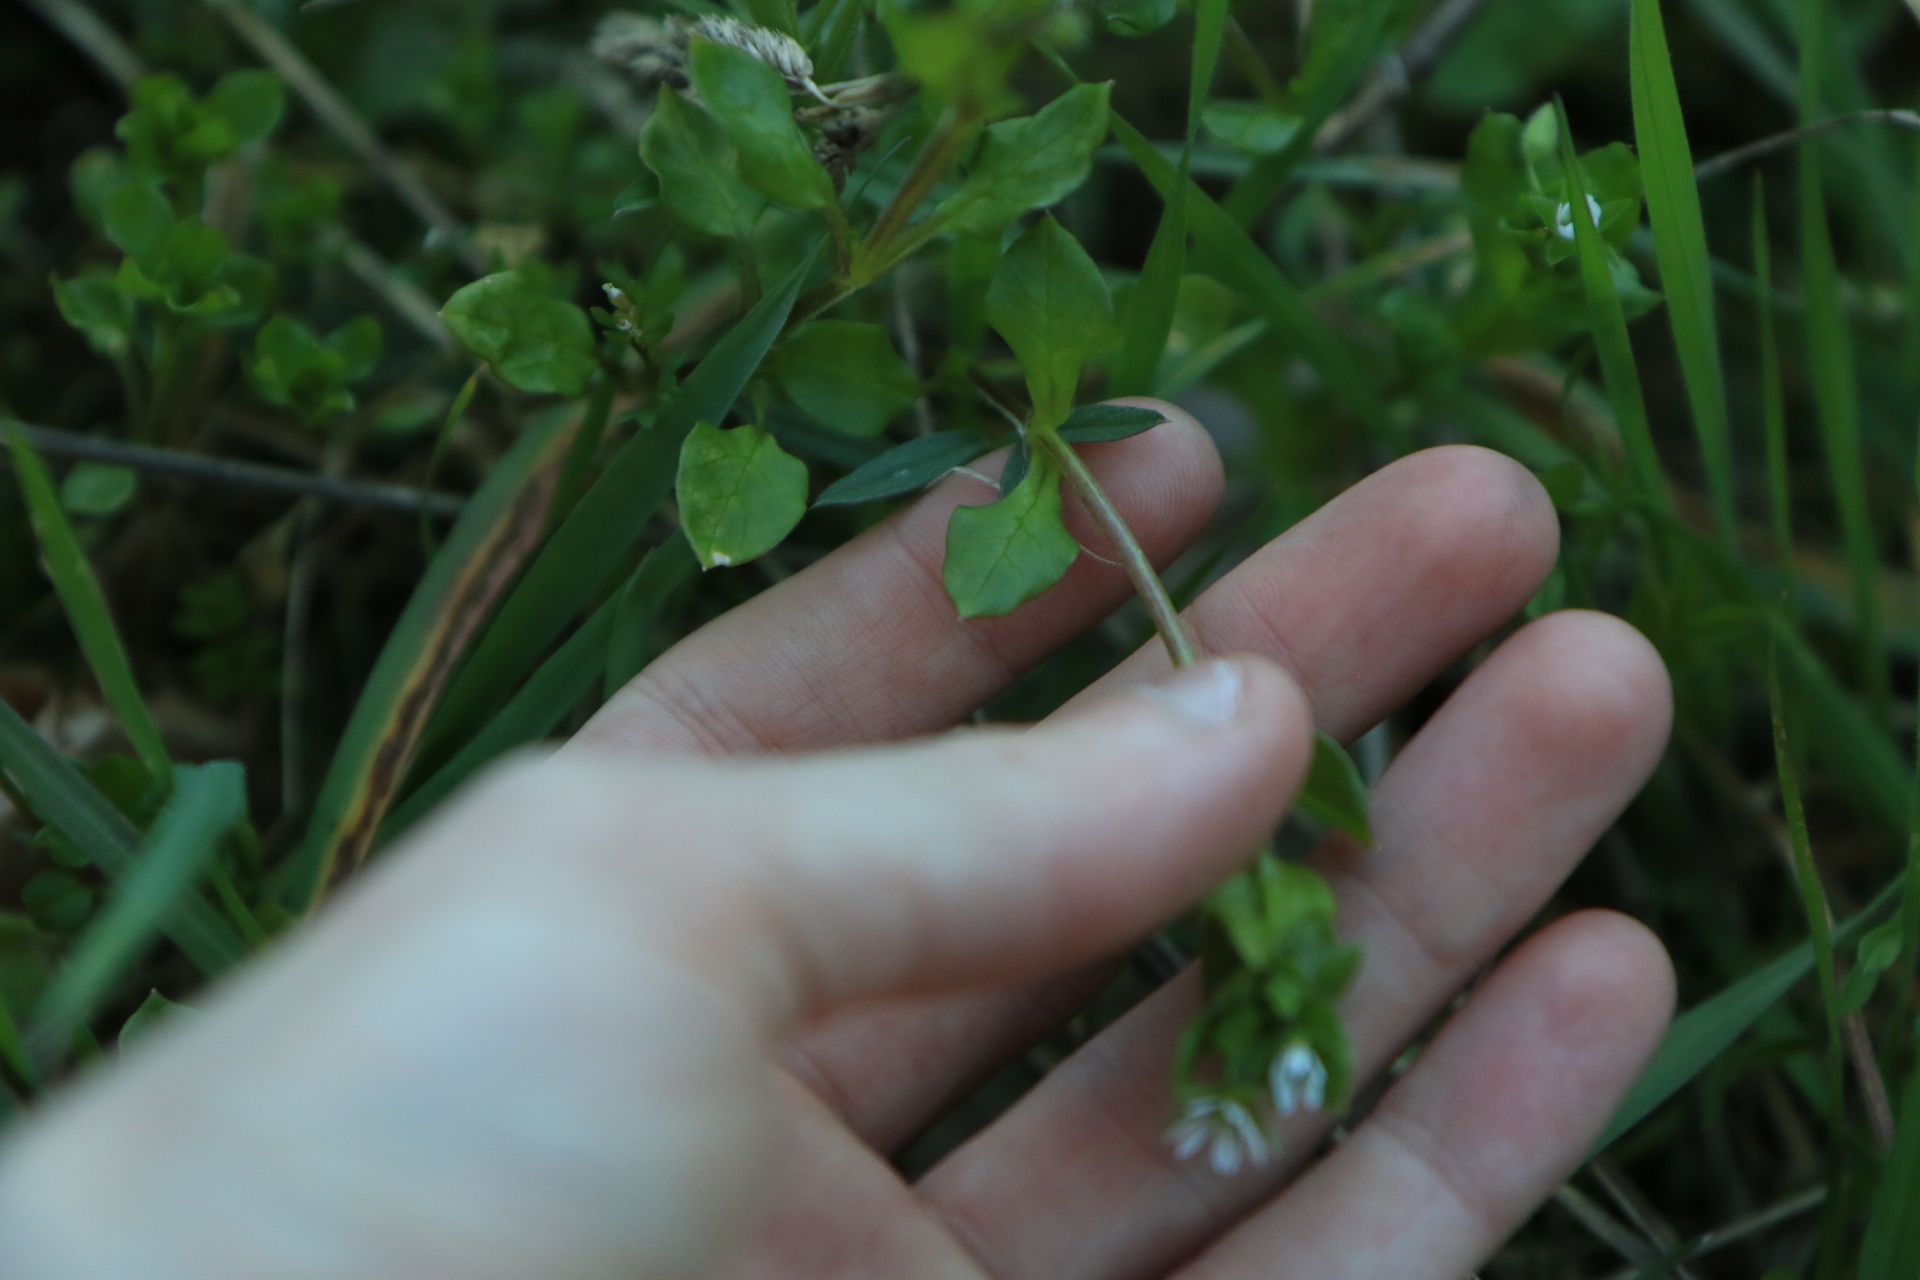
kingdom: Plantae
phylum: Tracheophyta
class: Magnoliopsida
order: Caryophyllales
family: Caryophyllaceae
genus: Stellaria
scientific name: Stellaria media
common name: Common chickweed
